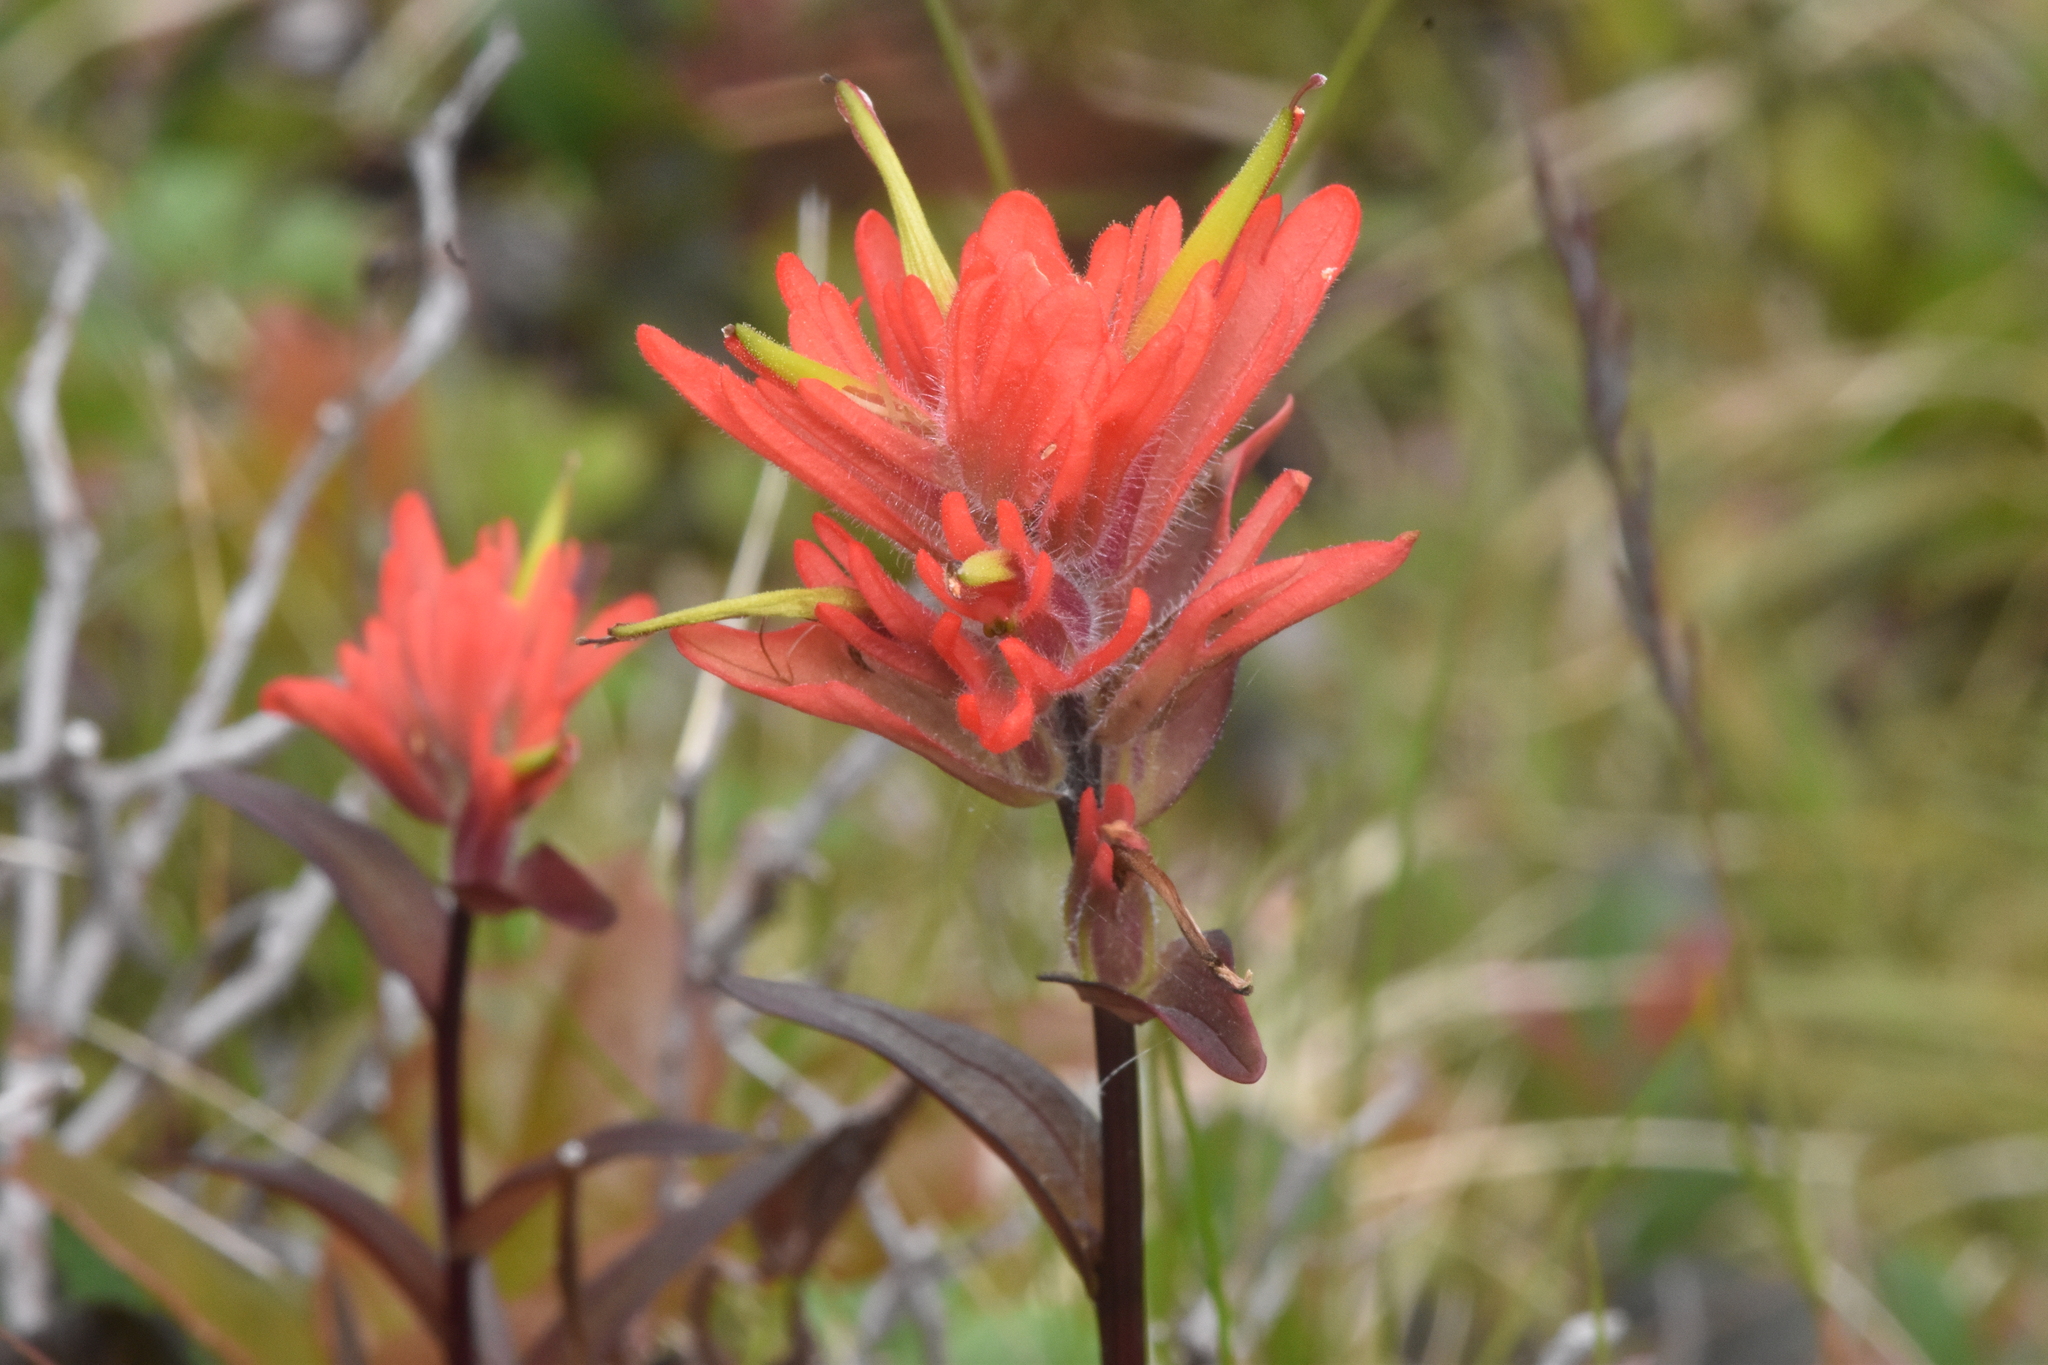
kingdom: Plantae
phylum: Tracheophyta
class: Magnoliopsida
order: Lamiales
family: Orobanchaceae
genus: Castilleja
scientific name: Castilleja miniata
